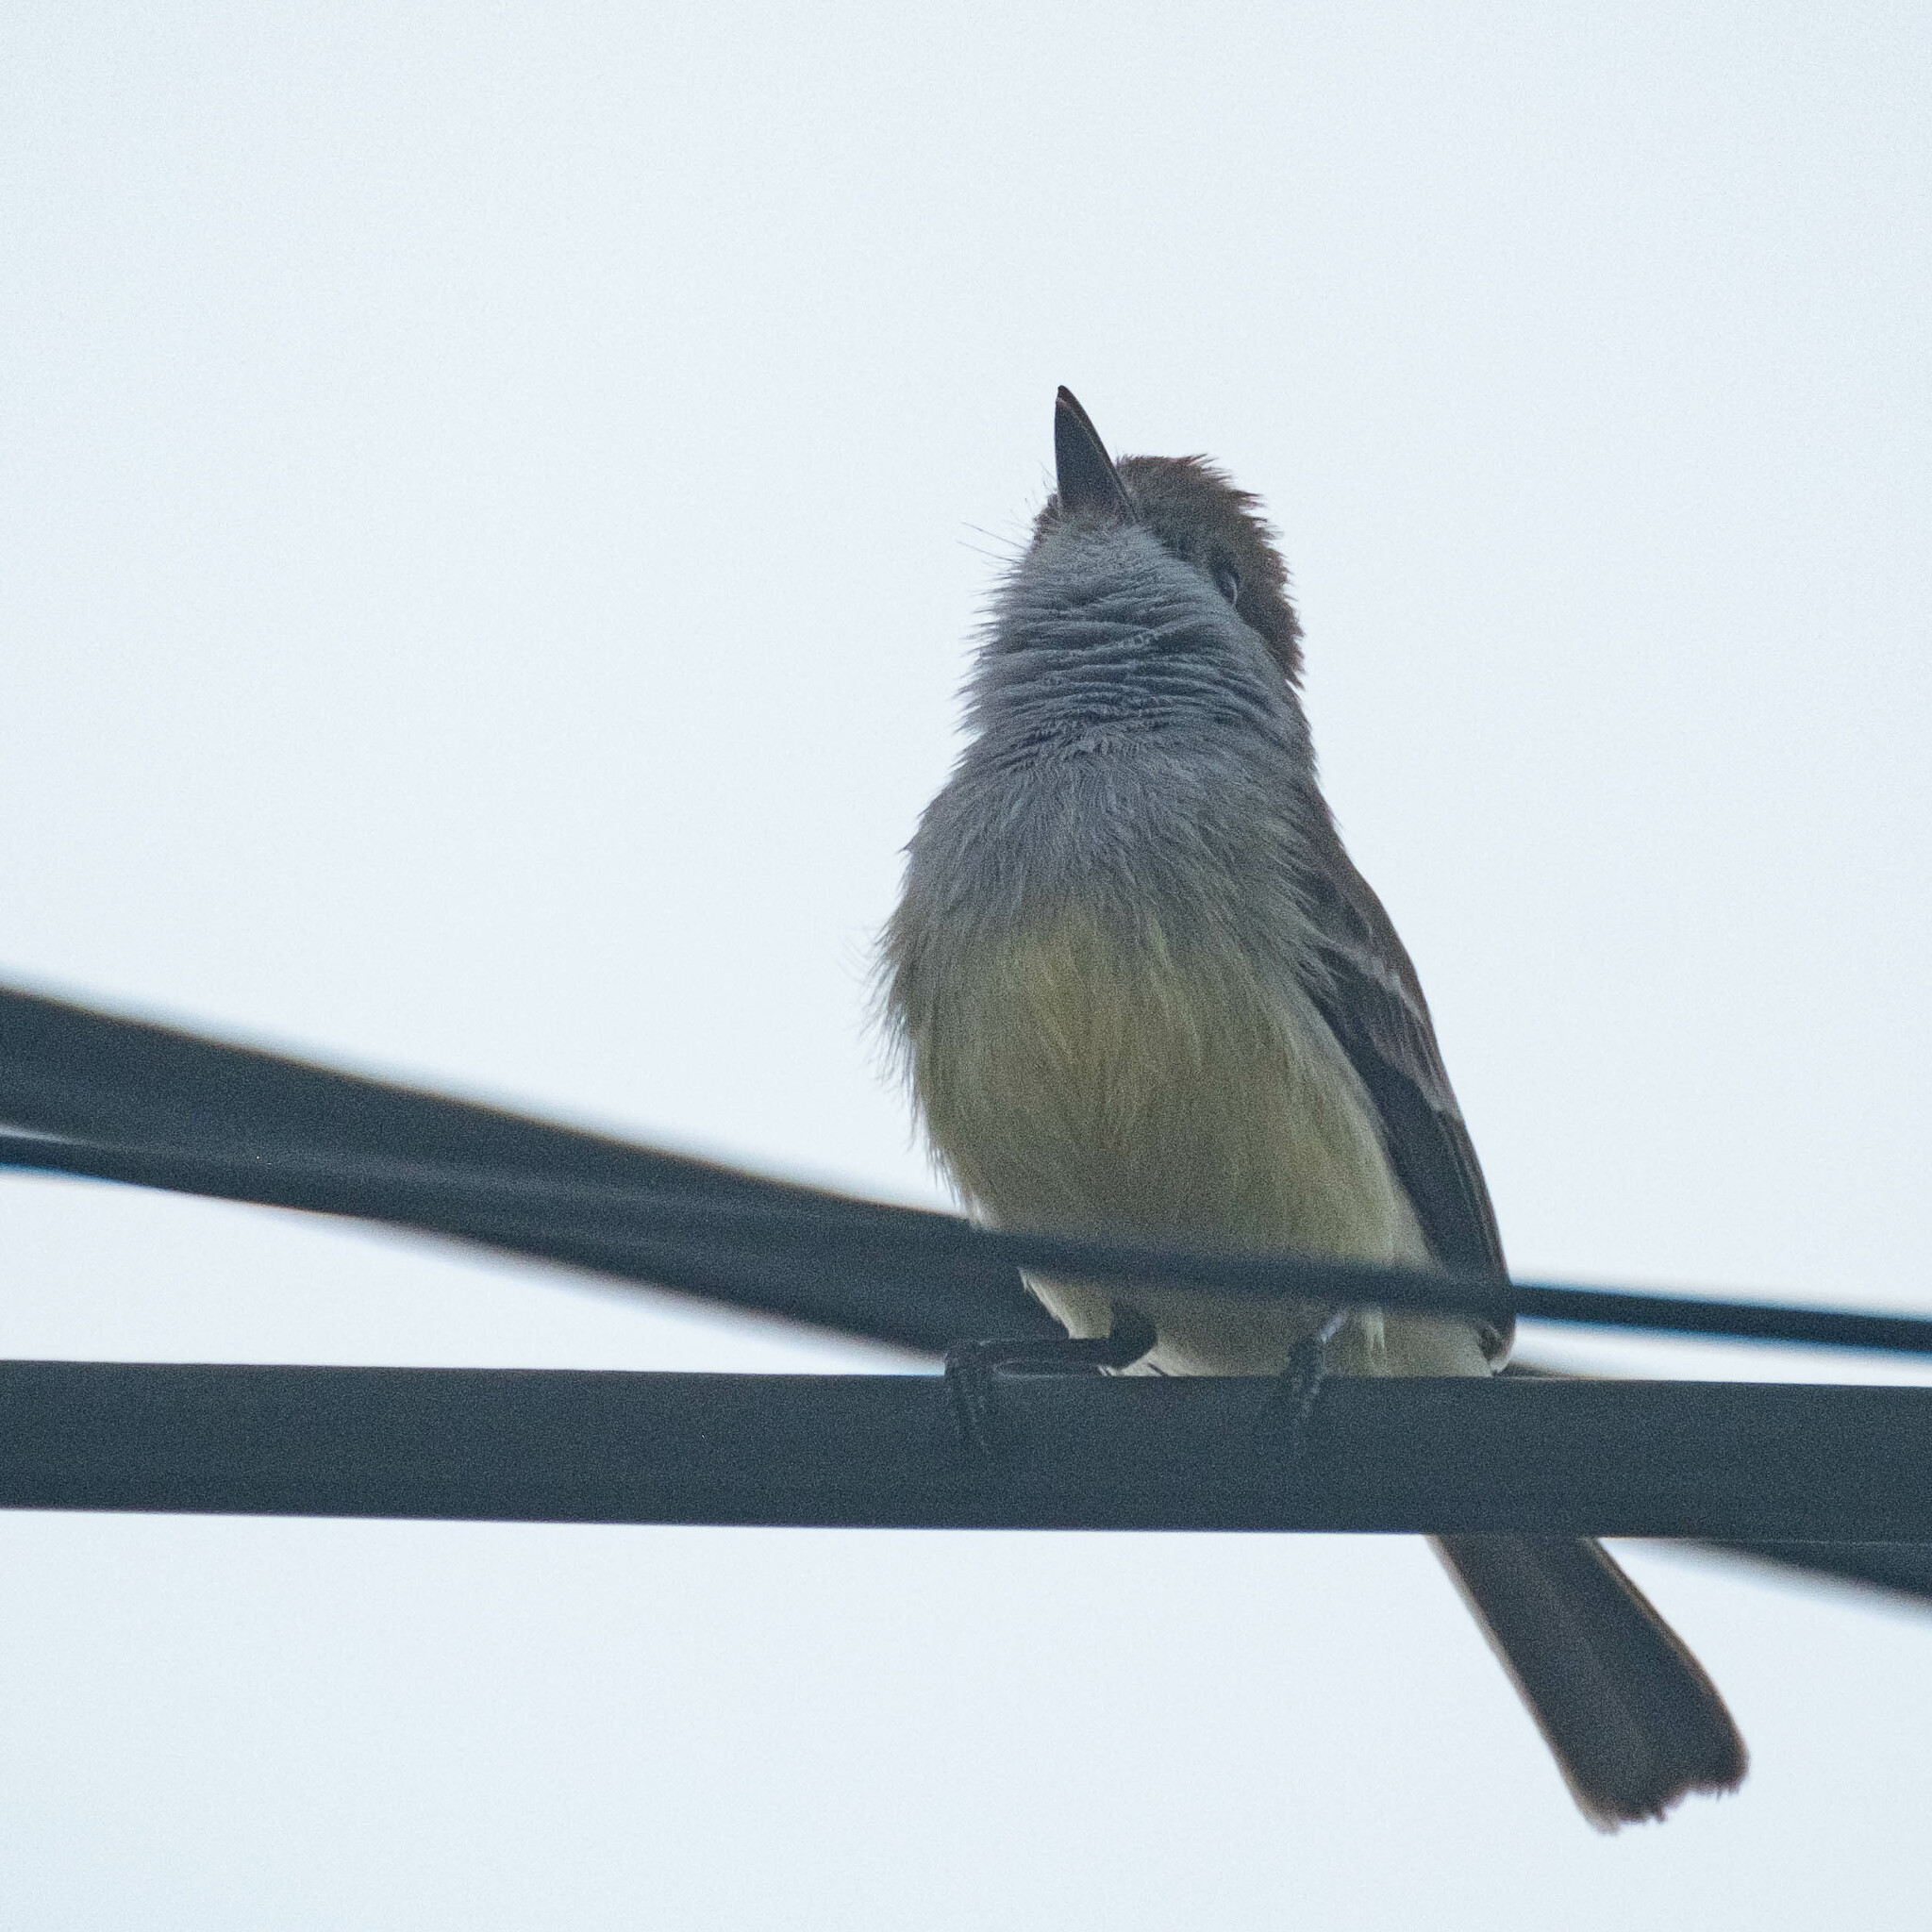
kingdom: Animalia
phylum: Chordata
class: Aves
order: Passeriformes
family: Tyrannidae
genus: Myiarchus
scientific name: Myiarchus magnirostris
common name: Galapagos flycatcher
